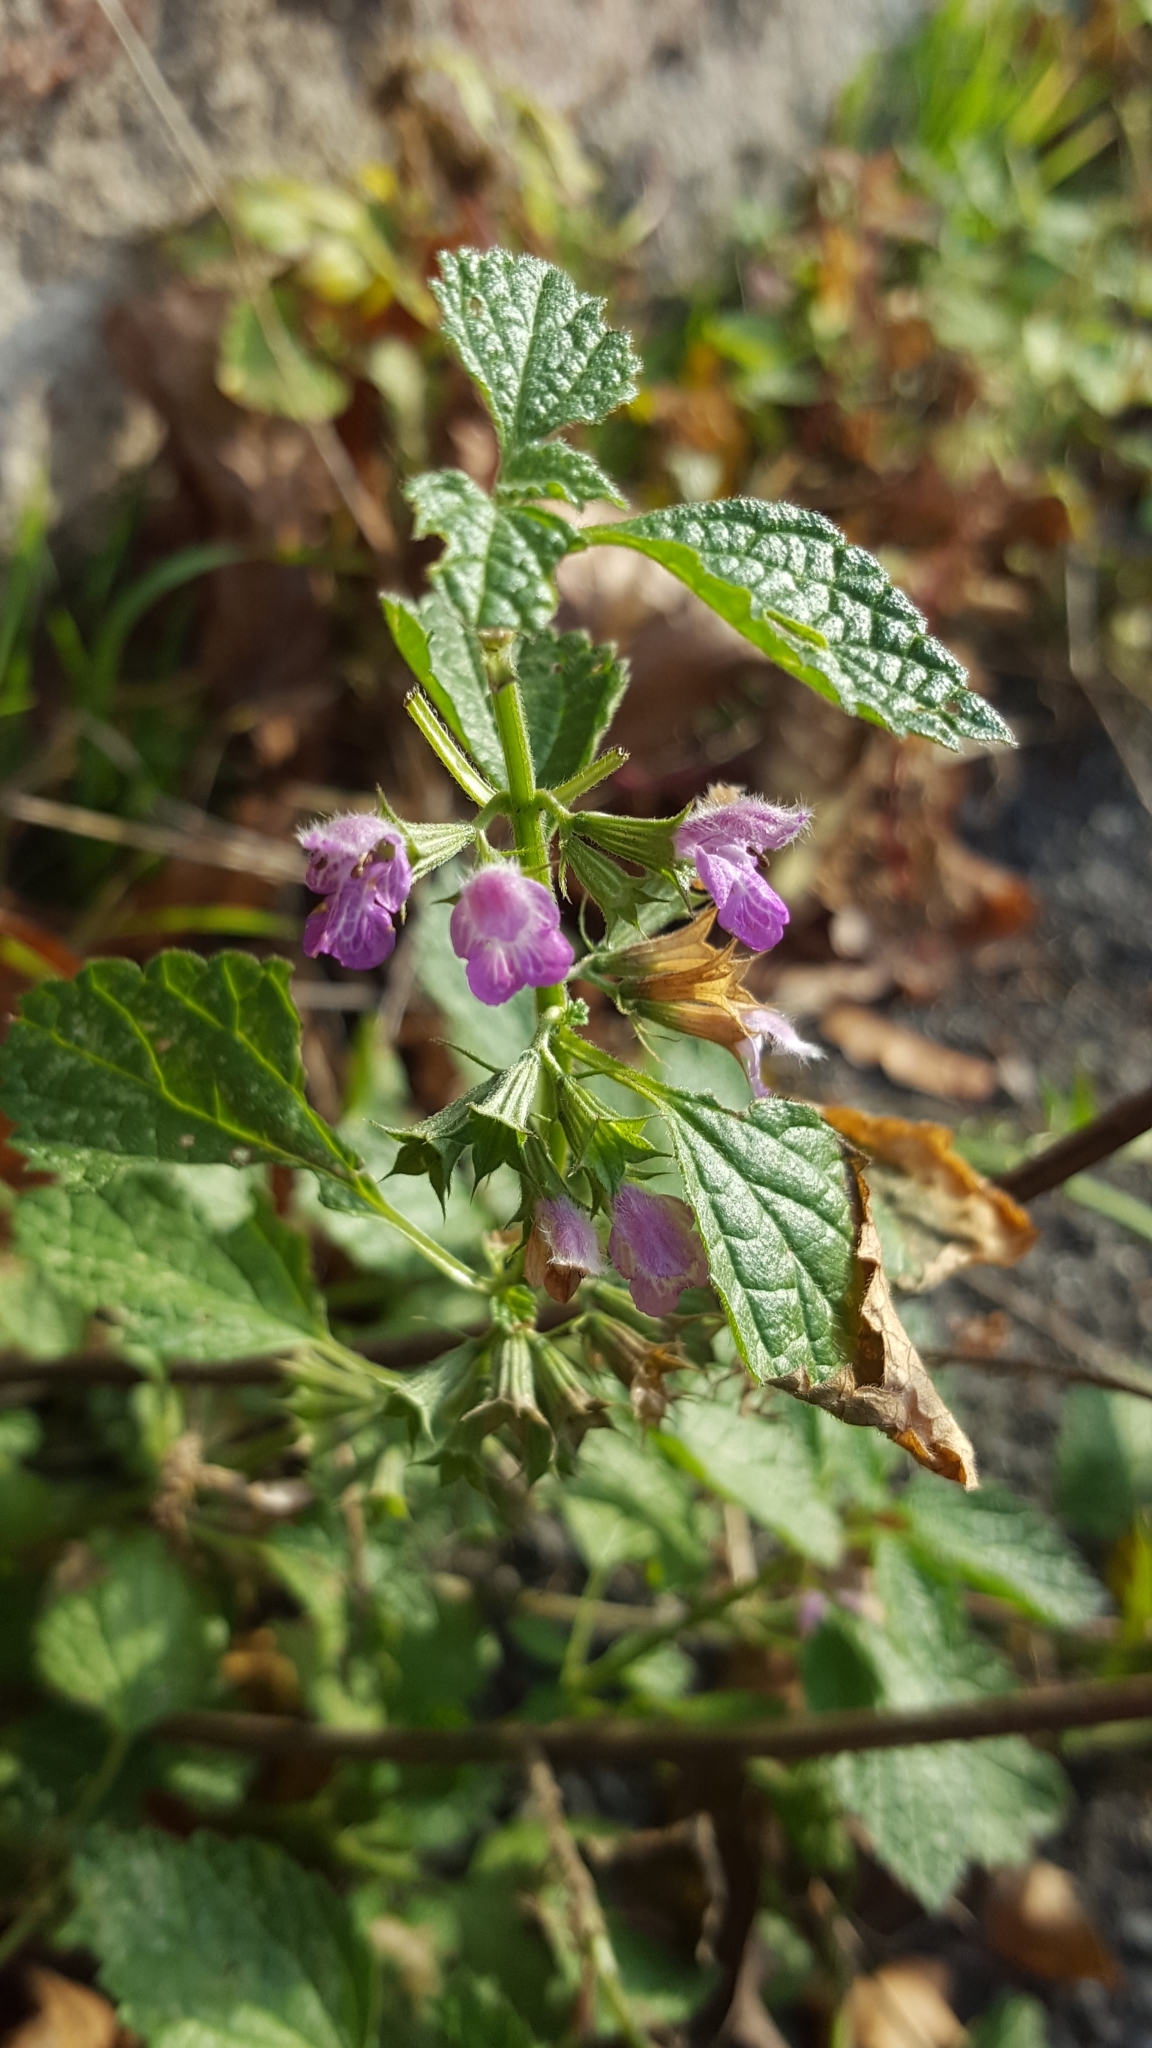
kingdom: Plantae
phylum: Tracheophyta
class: Magnoliopsida
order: Lamiales
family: Lamiaceae
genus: Ballota
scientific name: Ballota nigra
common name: Black horehound
